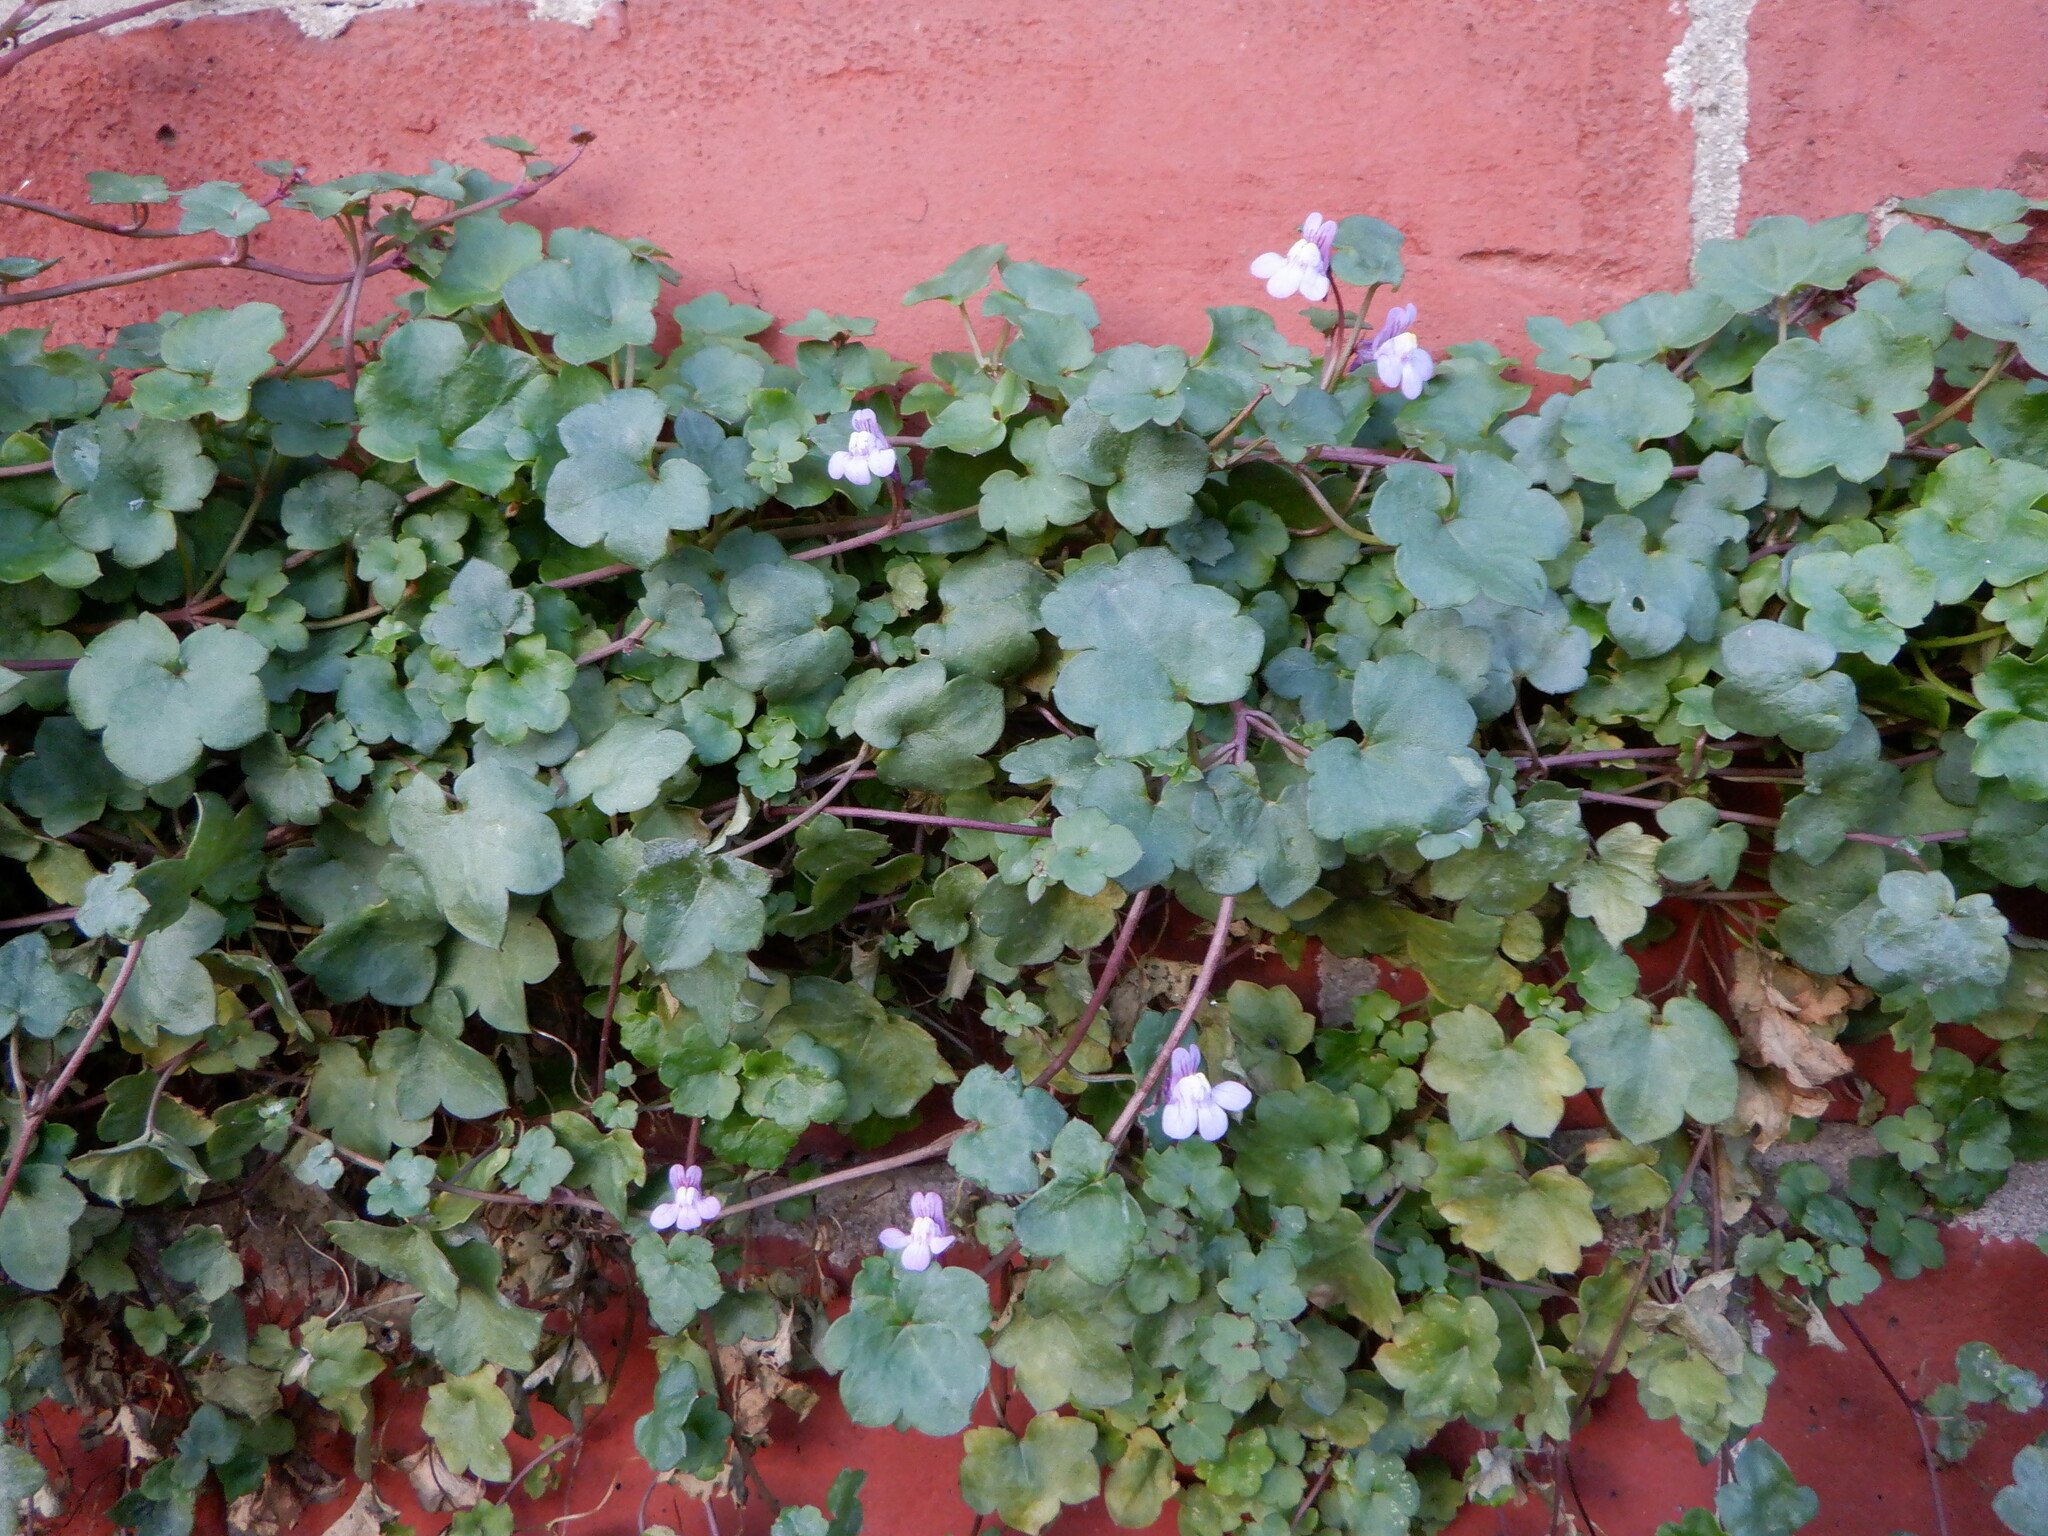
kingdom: Plantae
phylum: Tracheophyta
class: Magnoliopsida
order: Lamiales
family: Plantaginaceae
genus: Cymbalaria
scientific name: Cymbalaria muralis
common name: Ivy-leaved toadflax
